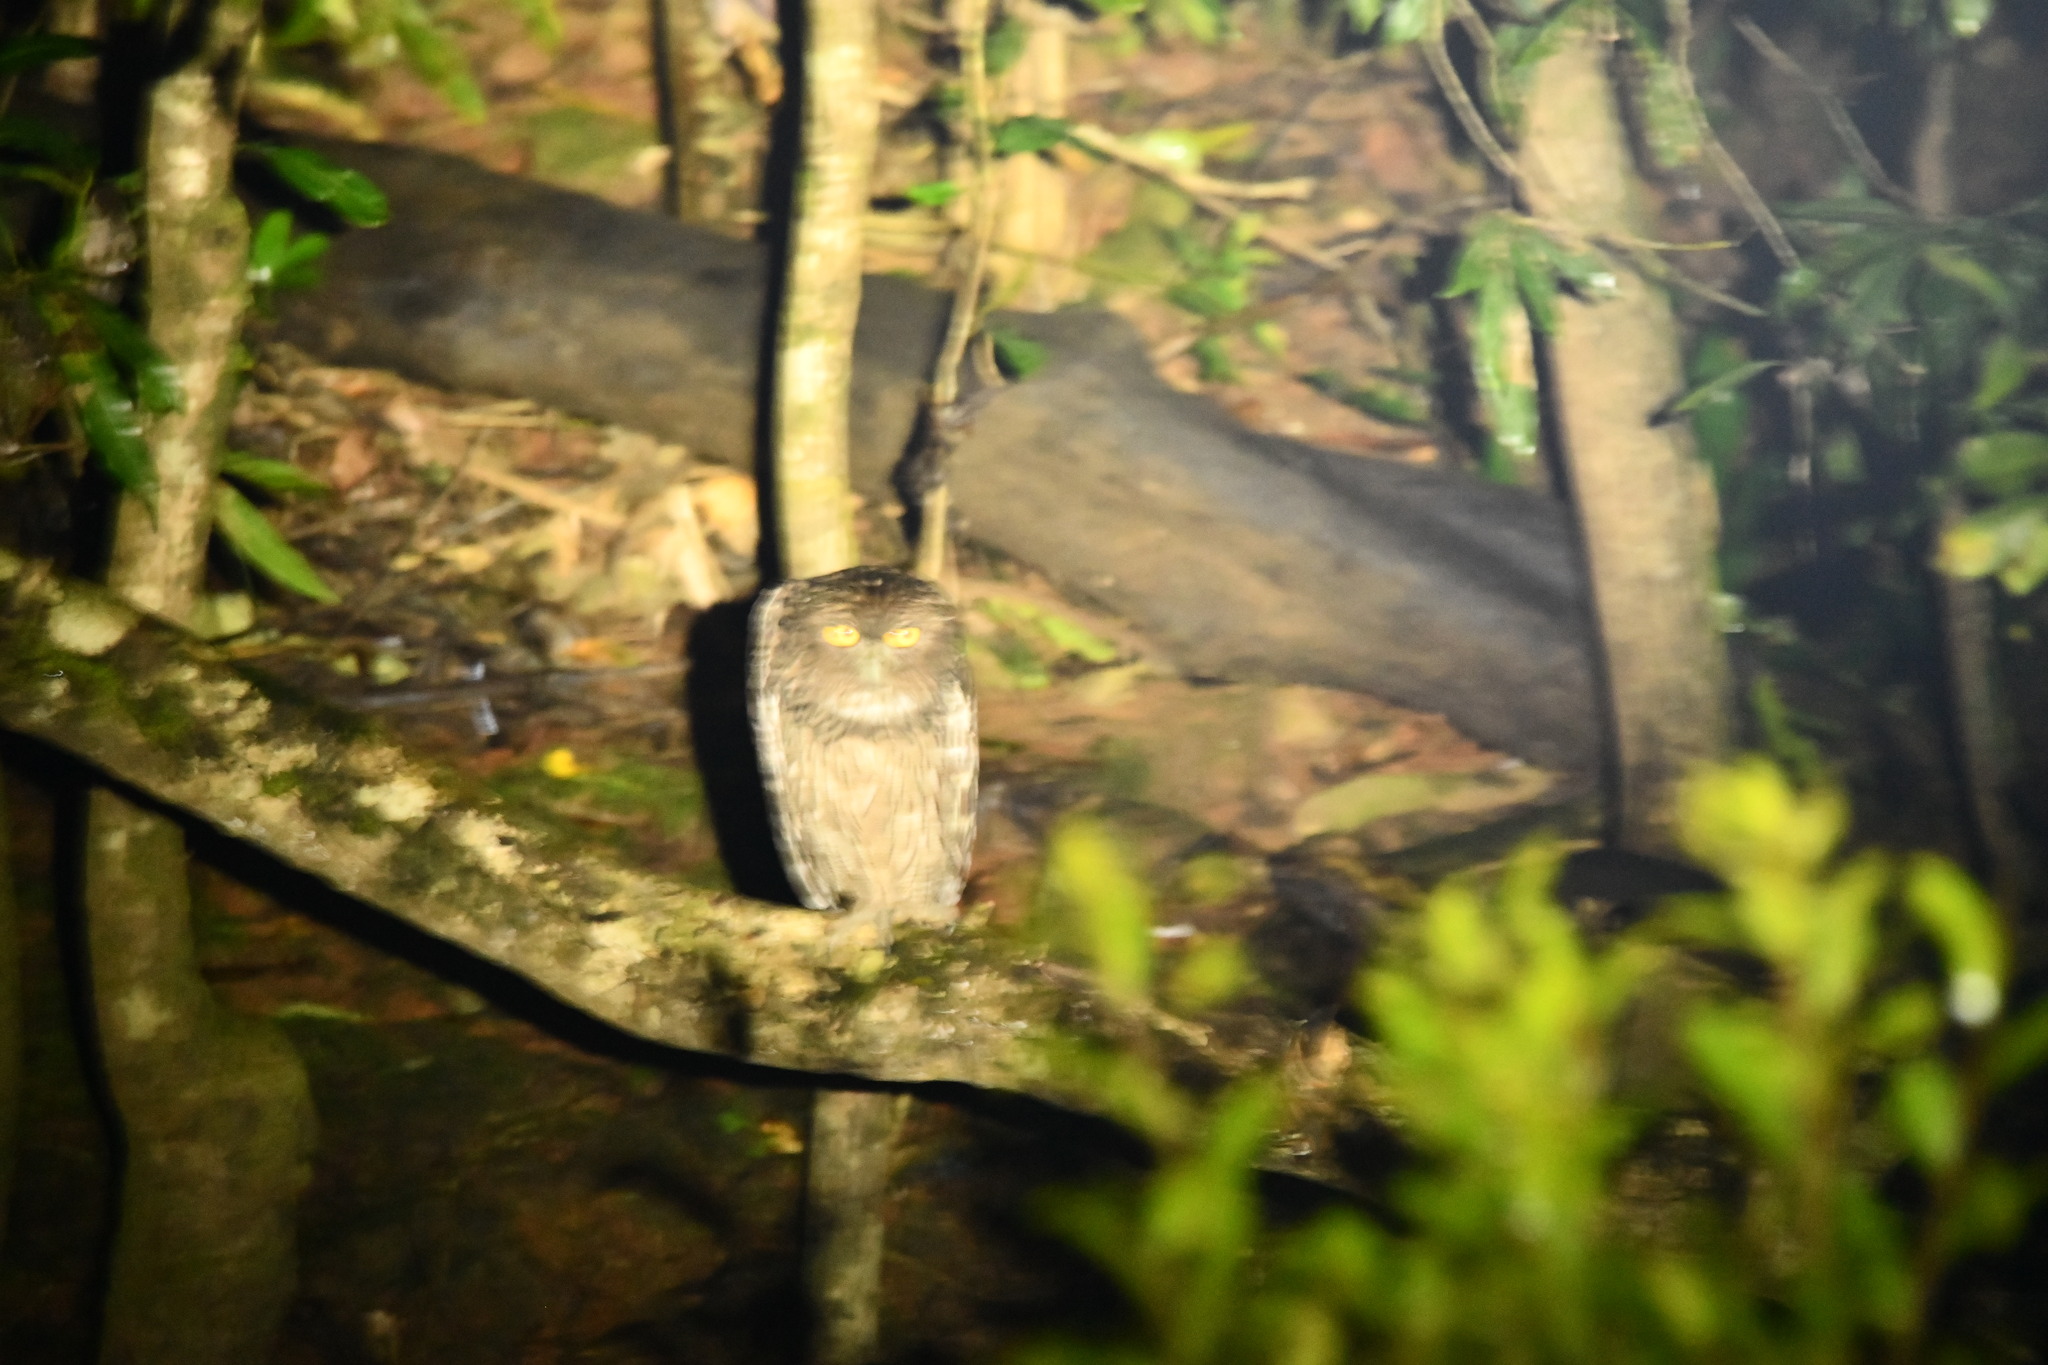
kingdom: Animalia
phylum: Chordata
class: Aves
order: Strigiformes
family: Strigidae
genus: Ketupa
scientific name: Ketupa zeylonensis
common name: Brown fish owl
